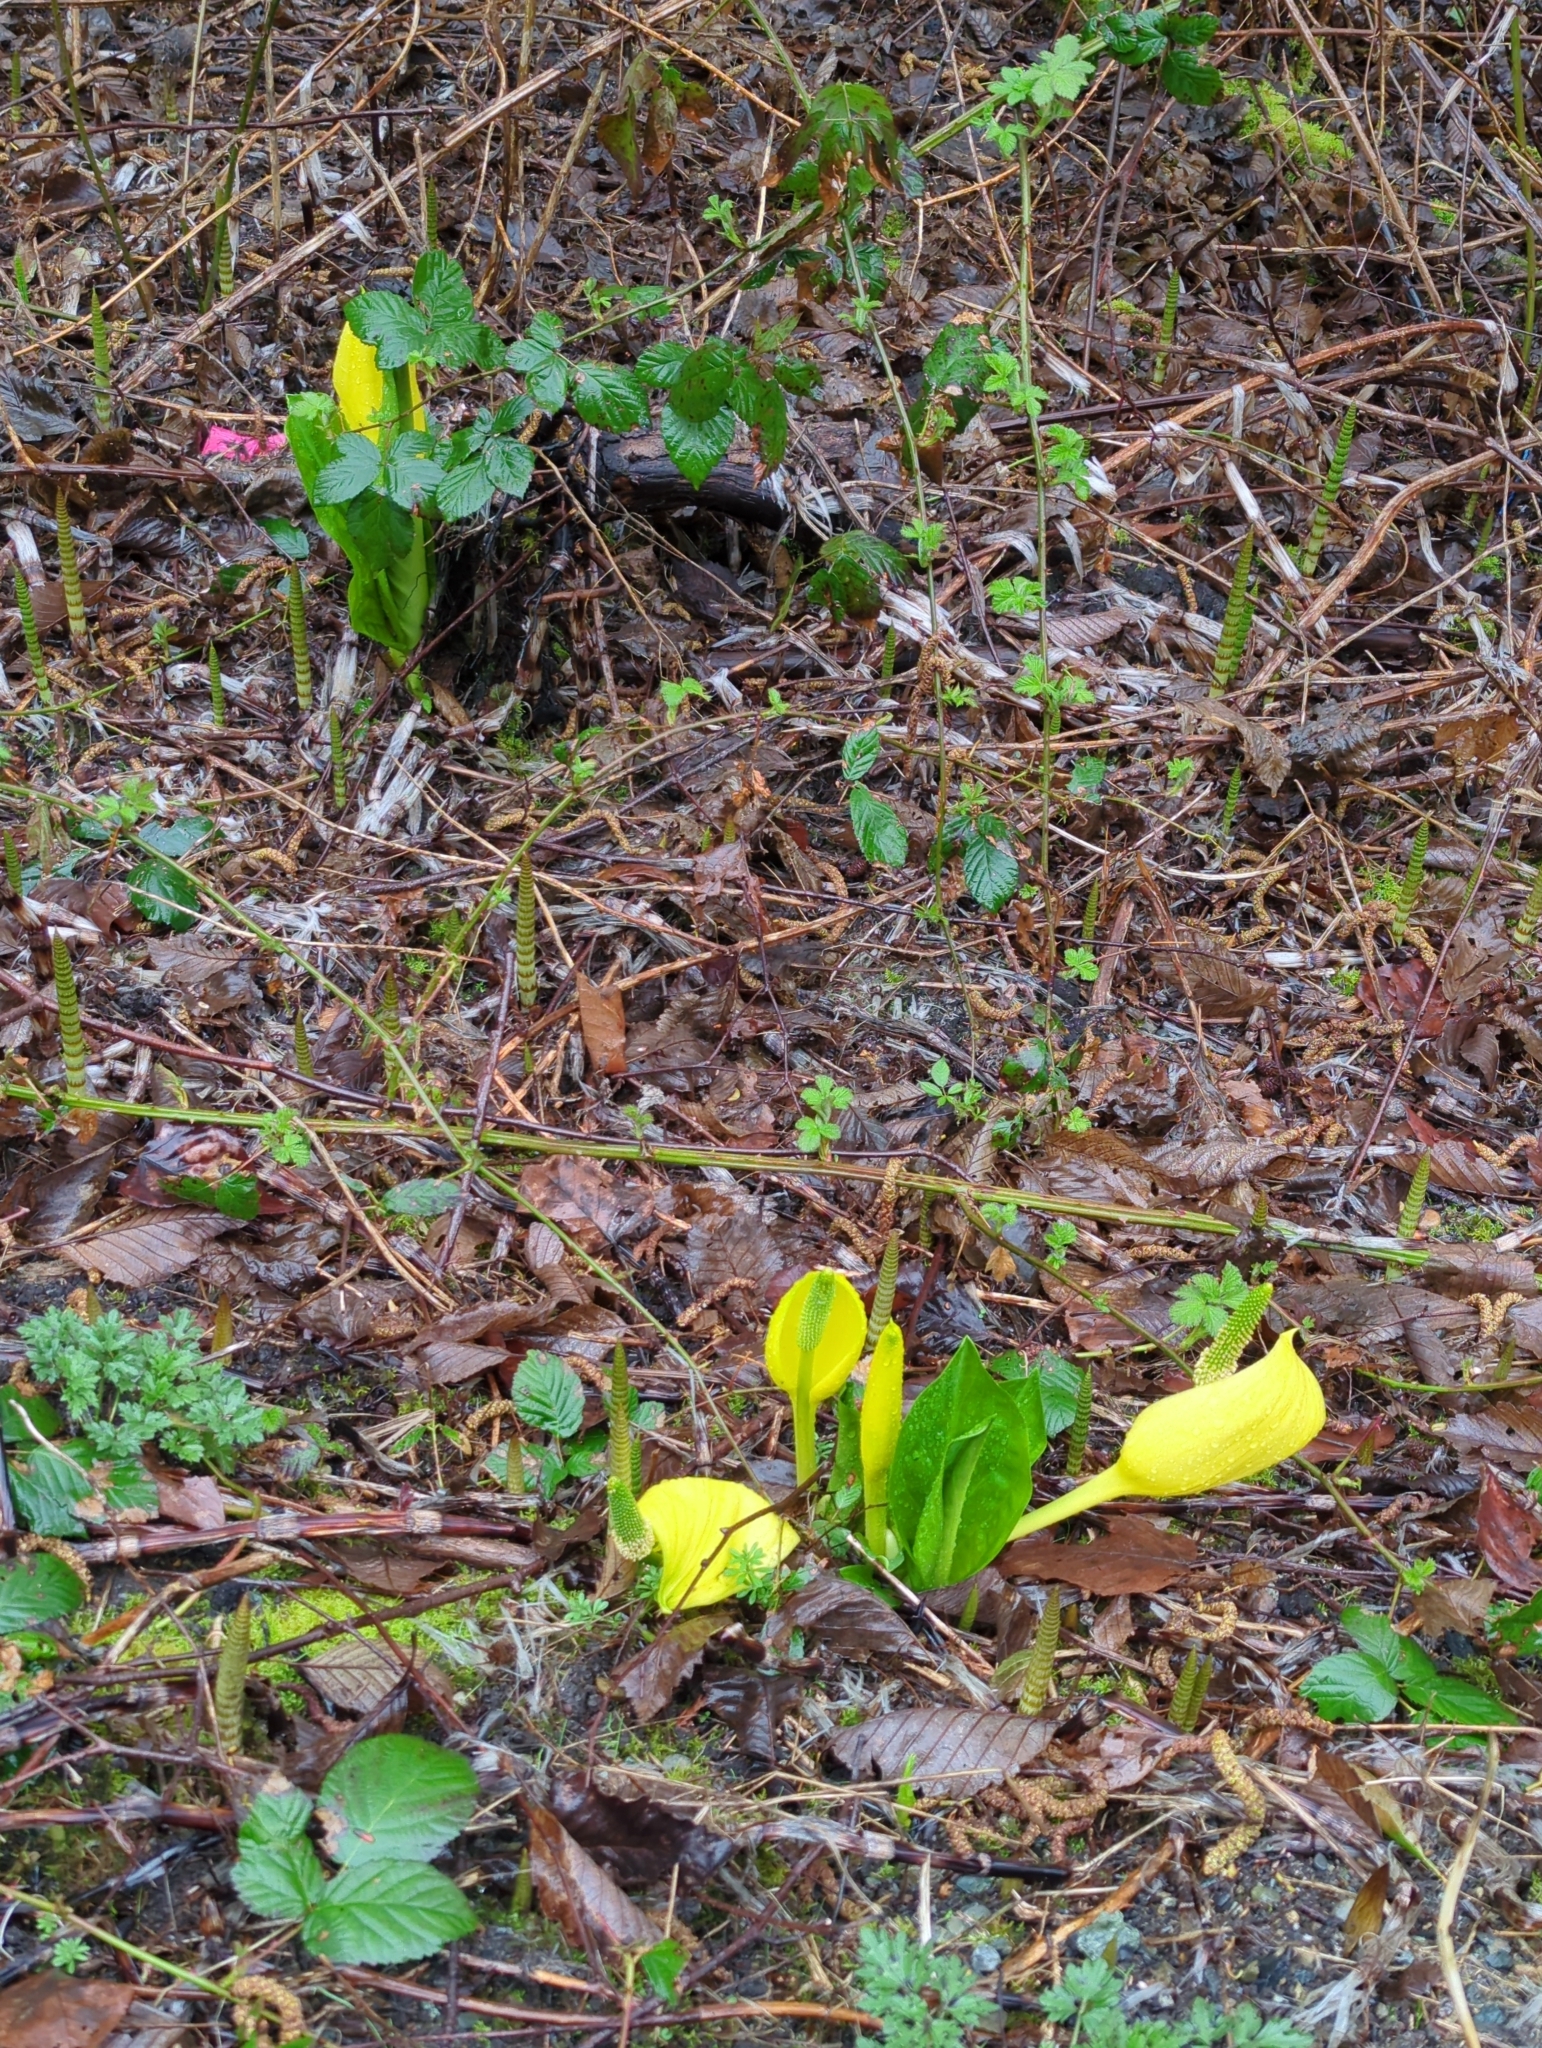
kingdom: Plantae
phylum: Tracheophyta
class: Liliopsida
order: Alismatales
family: Araceae
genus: Lysichiton
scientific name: Lysichiton americanus
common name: American skunk cabbage
